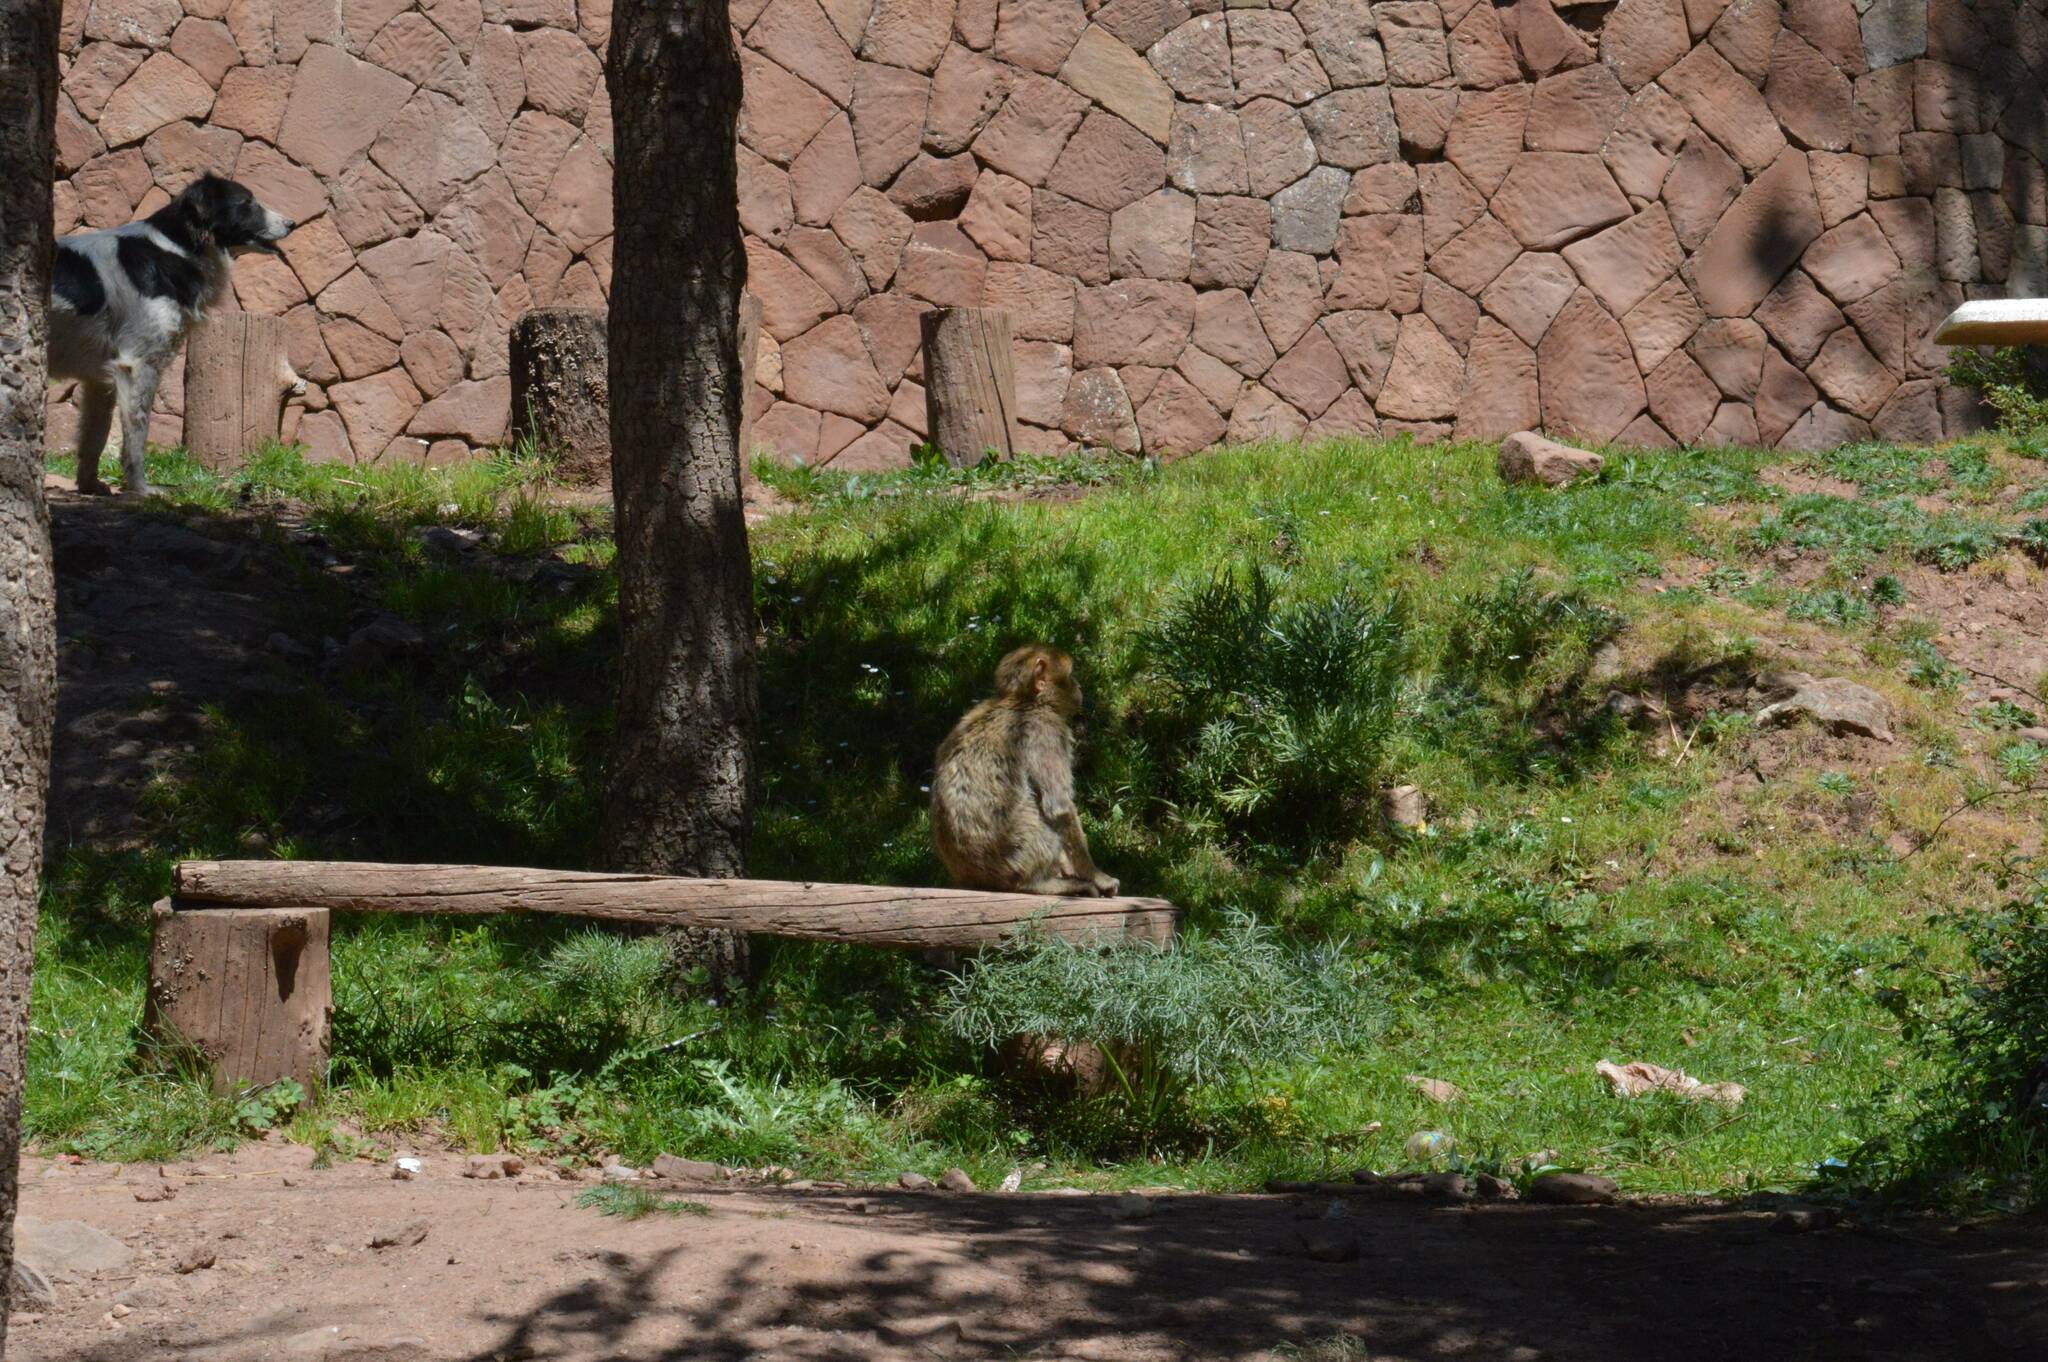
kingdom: Animalia
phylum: Chordata
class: Mammalia
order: Primates
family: Cercopithecidae
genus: Macaca
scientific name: Macaca sylvanus
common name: Barbary macaque
